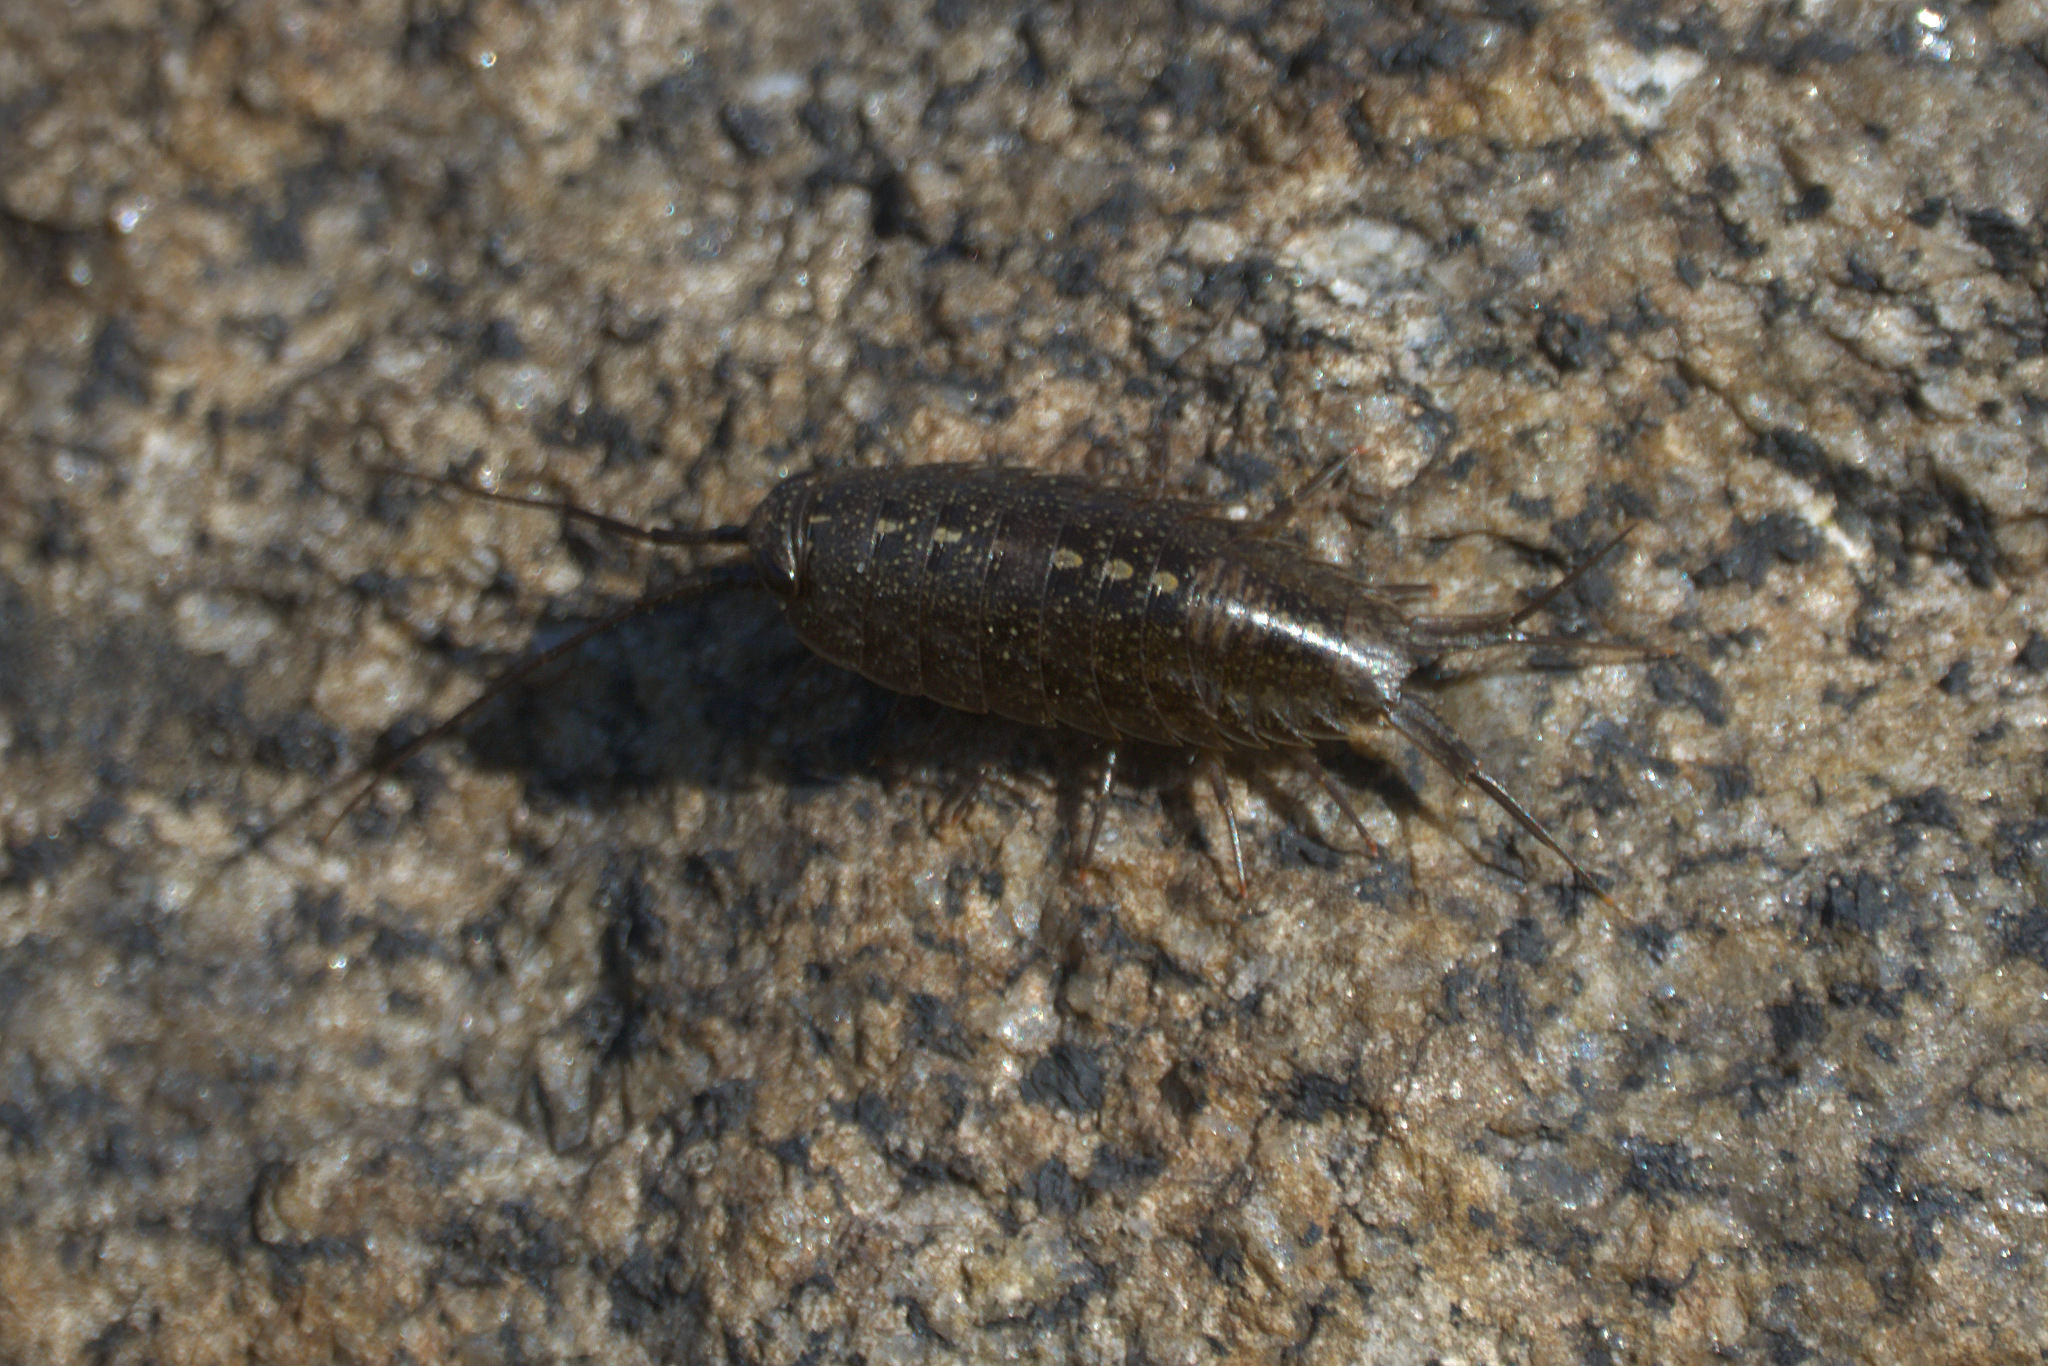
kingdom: Animalia
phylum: Arthropoda
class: Malacostraca
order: Isopoda
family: Ligiidae
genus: Ligia
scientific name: Ligia occidentalis
